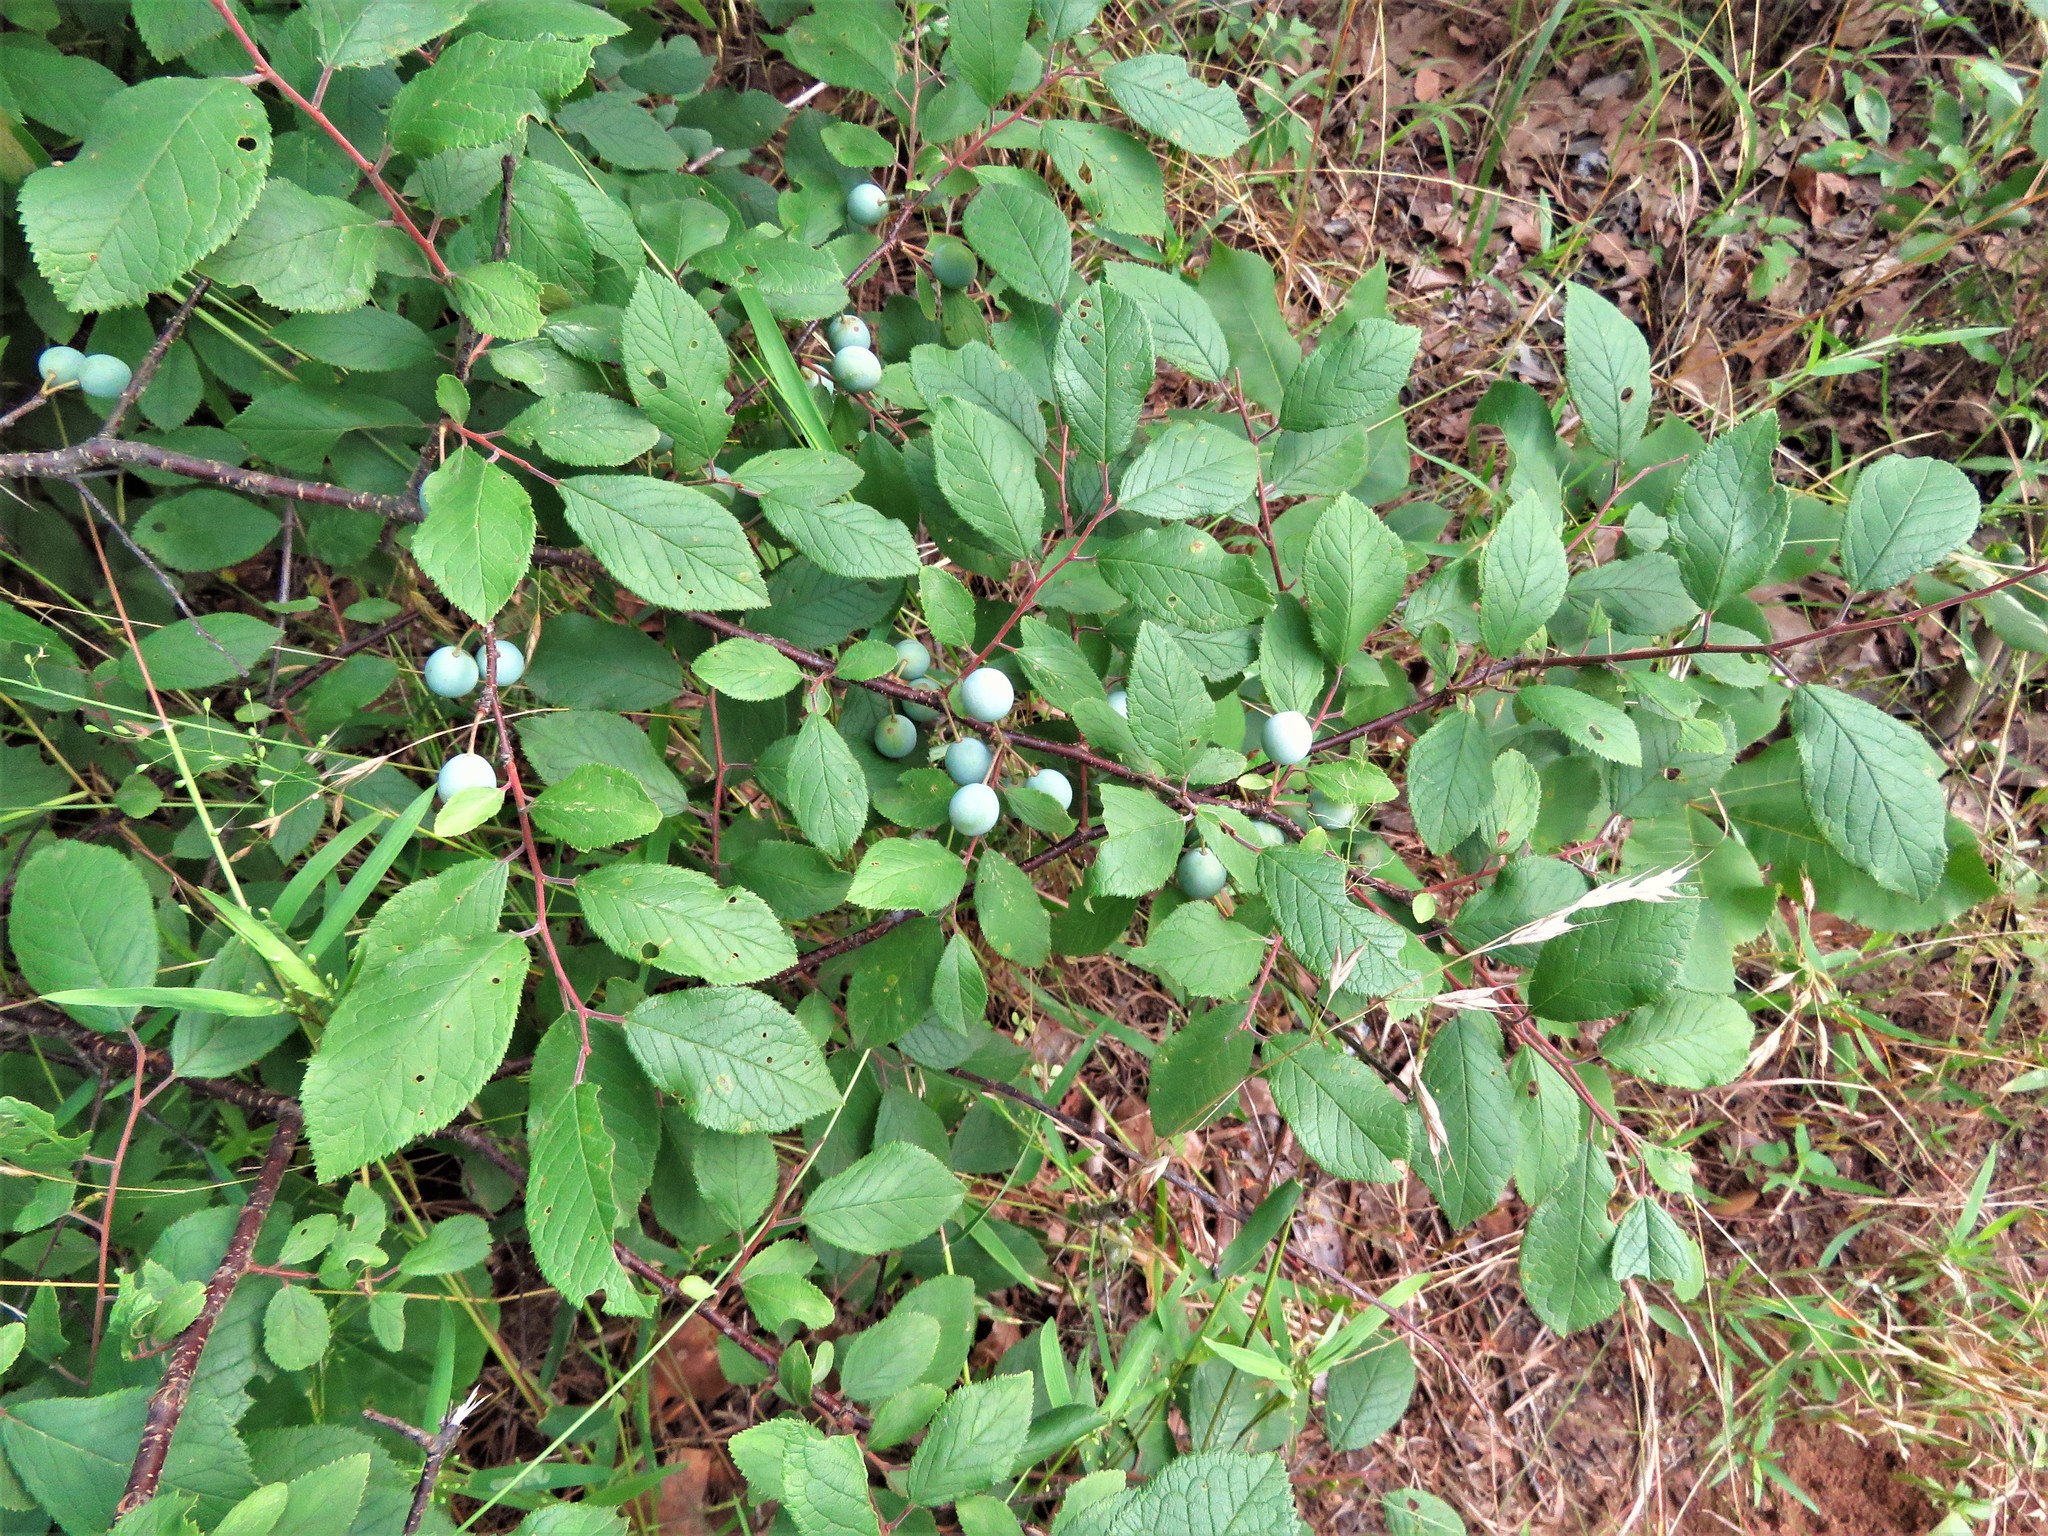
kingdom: Plantae
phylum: Tracheophyta
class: Magnoliopsida
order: Rosales
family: Rosaceae
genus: Prunus
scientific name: Prunus mexicana
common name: Mexican plum
